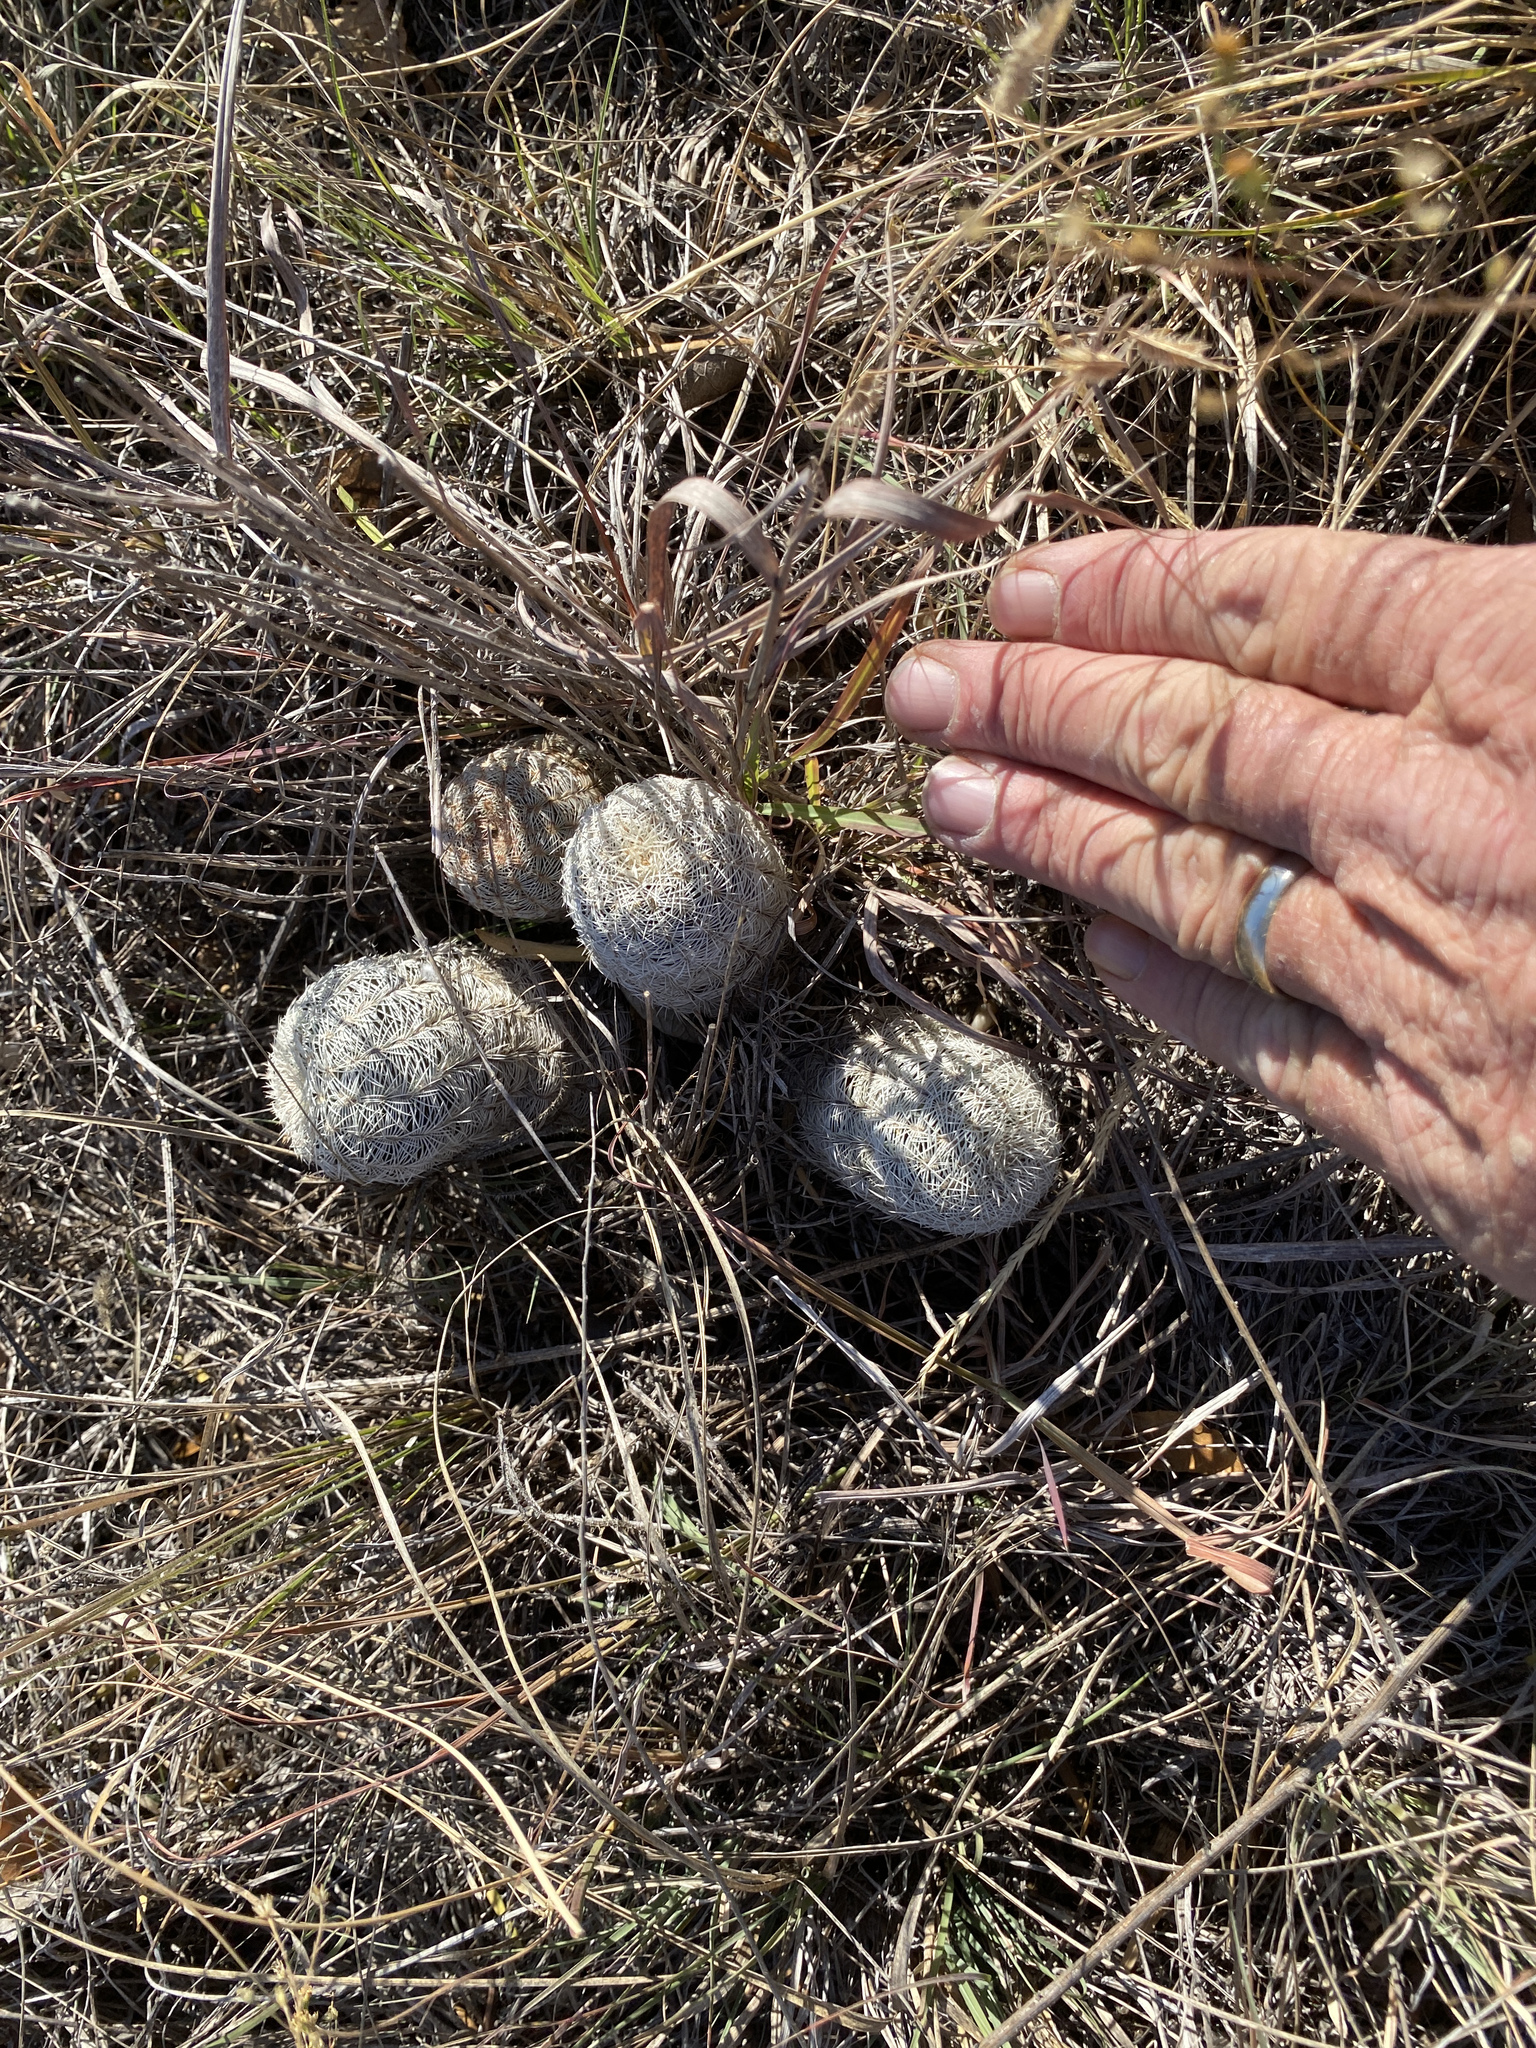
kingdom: Plantae
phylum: Tracheophyta
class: Magnoliopsida
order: Caryophyllales
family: Cactaceae
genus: Echinocereus
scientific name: Echinocereus reichenbachii
